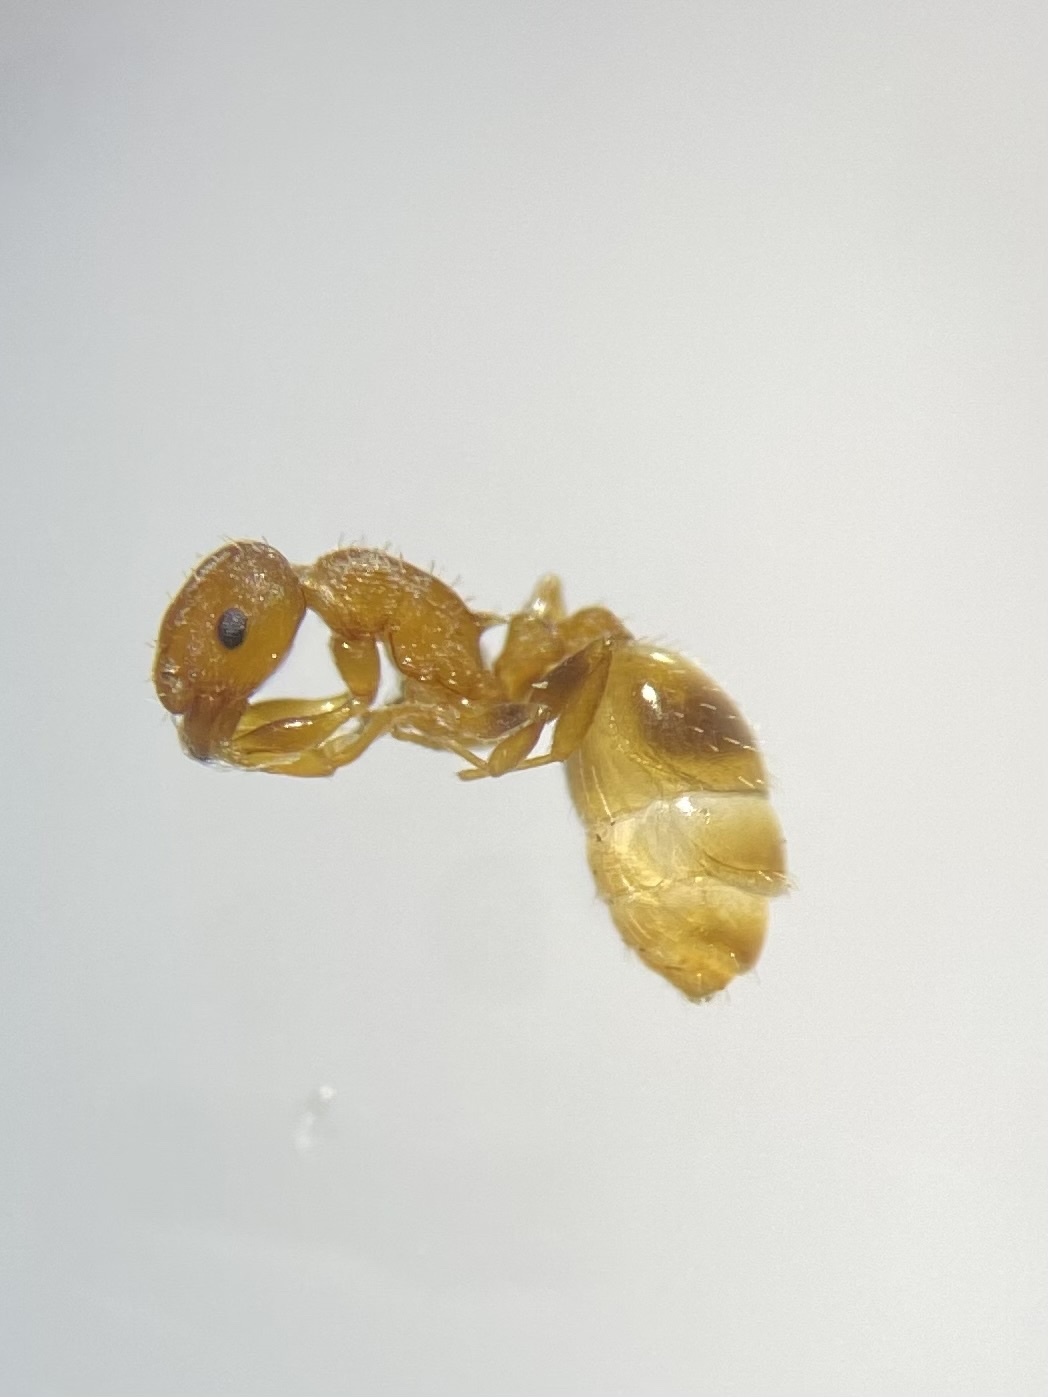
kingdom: Animalia
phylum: Arthropoda
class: Insecta
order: Hymenoptera
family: Formicidae
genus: Temnothorax
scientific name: Temnothorax ambiguus
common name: Doubtful acorn ant
